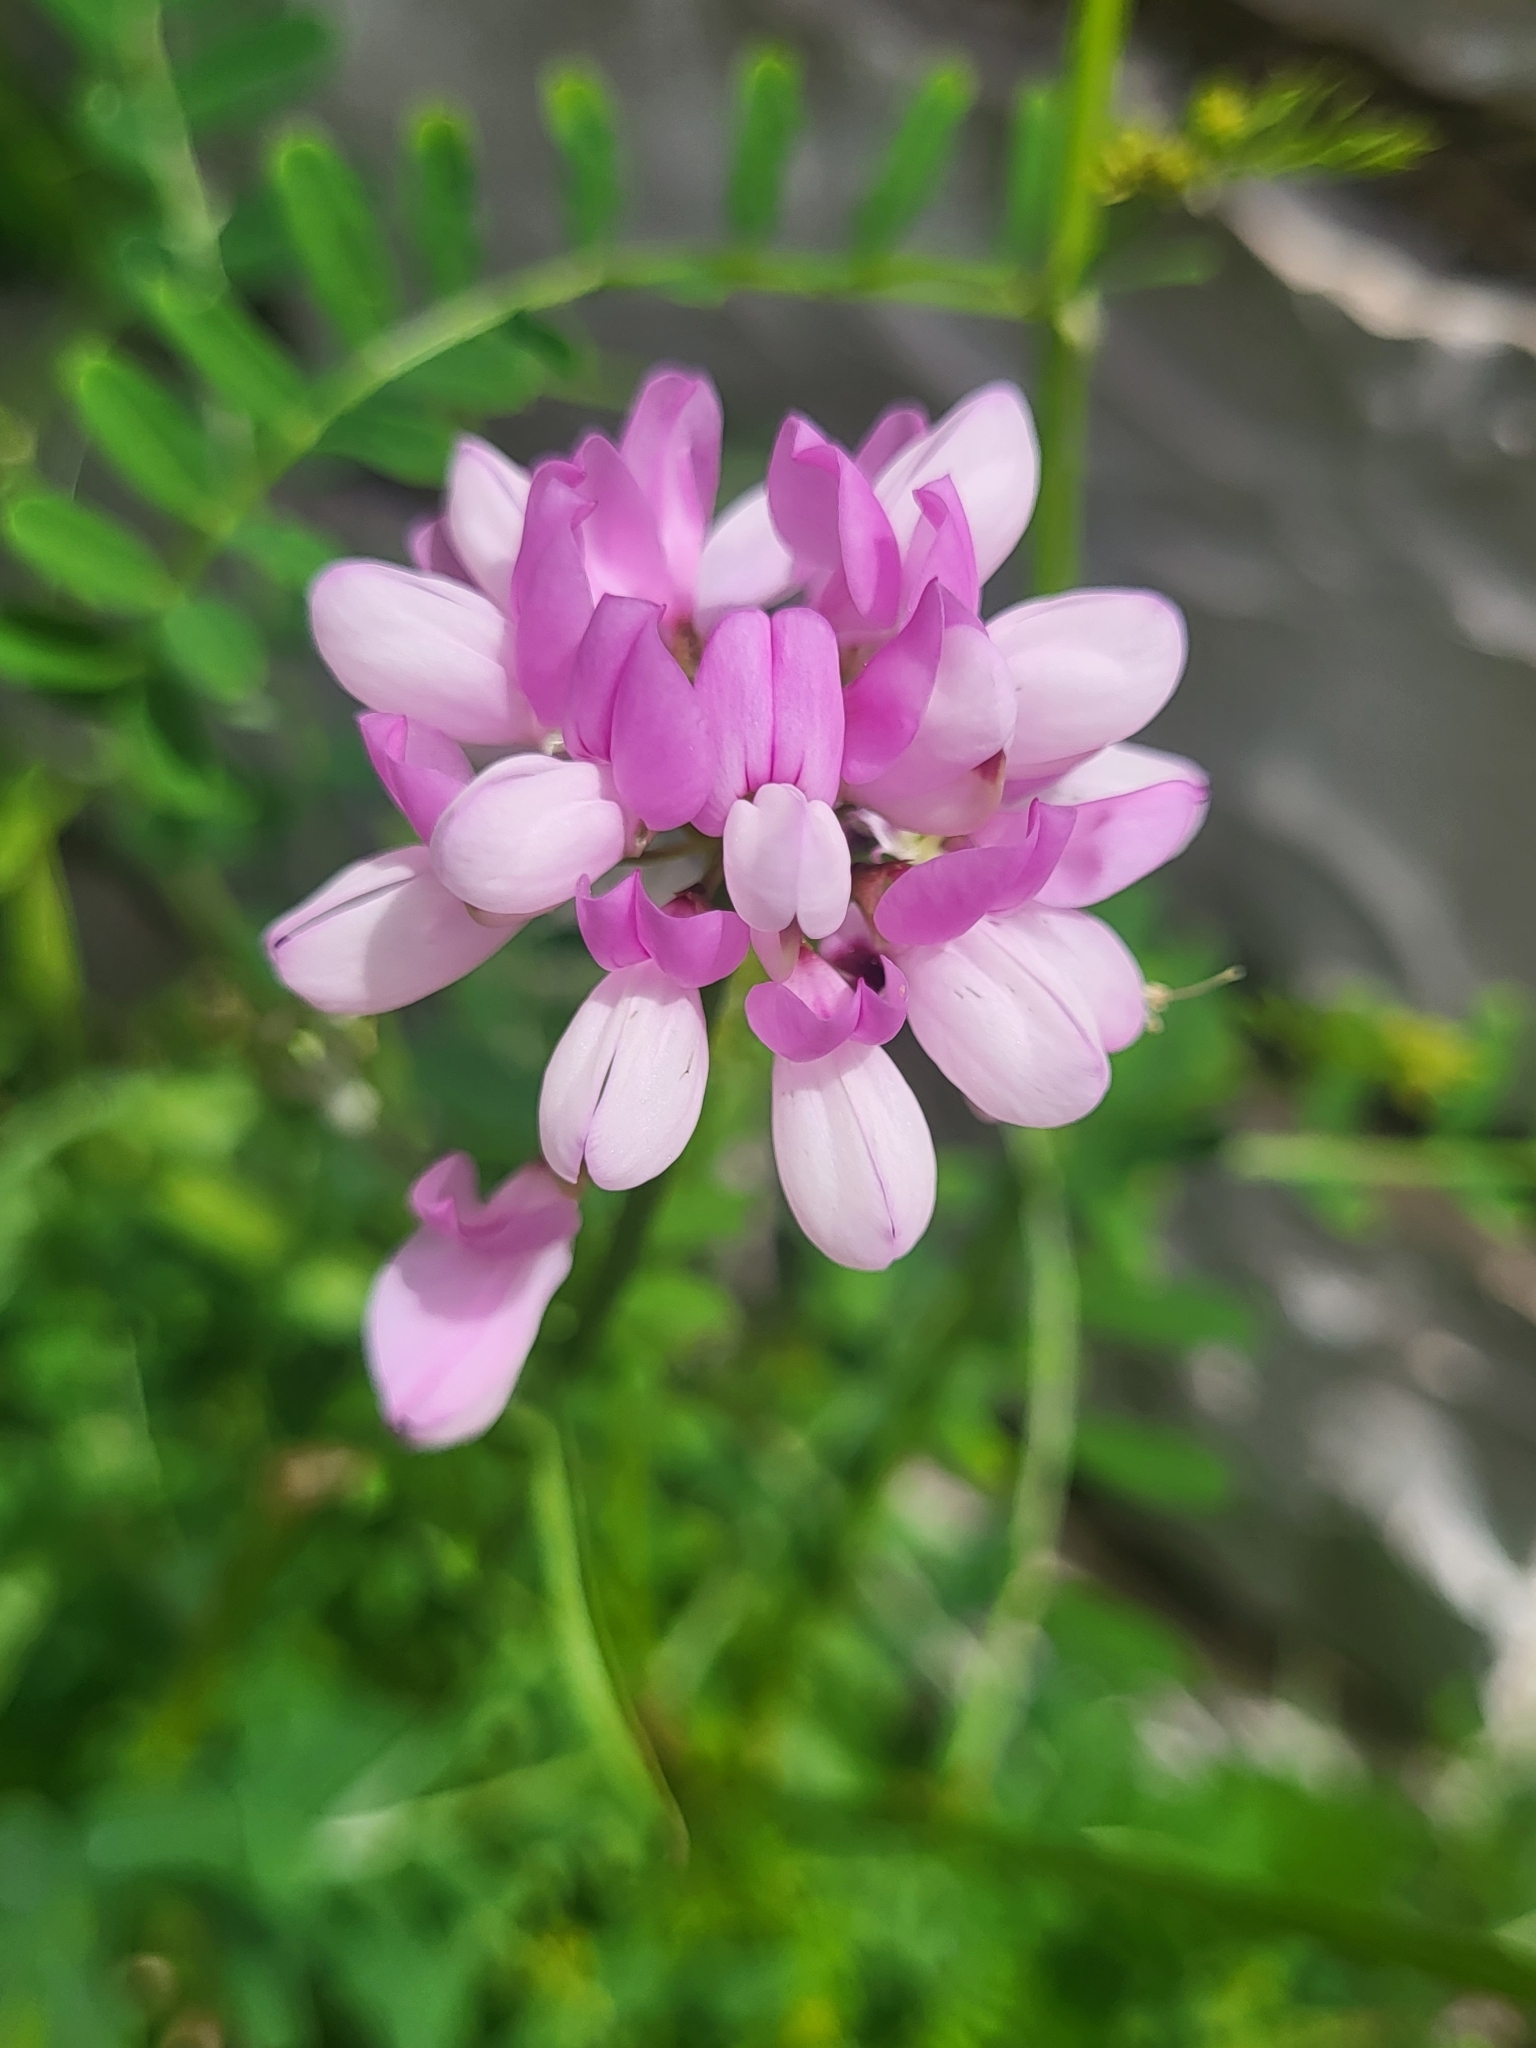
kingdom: Plantae
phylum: Tracheophyta
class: Magnoliopsida
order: Fabales
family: Fabaceae
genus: Coronilla
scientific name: Coronilla varia
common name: Crownvetch
